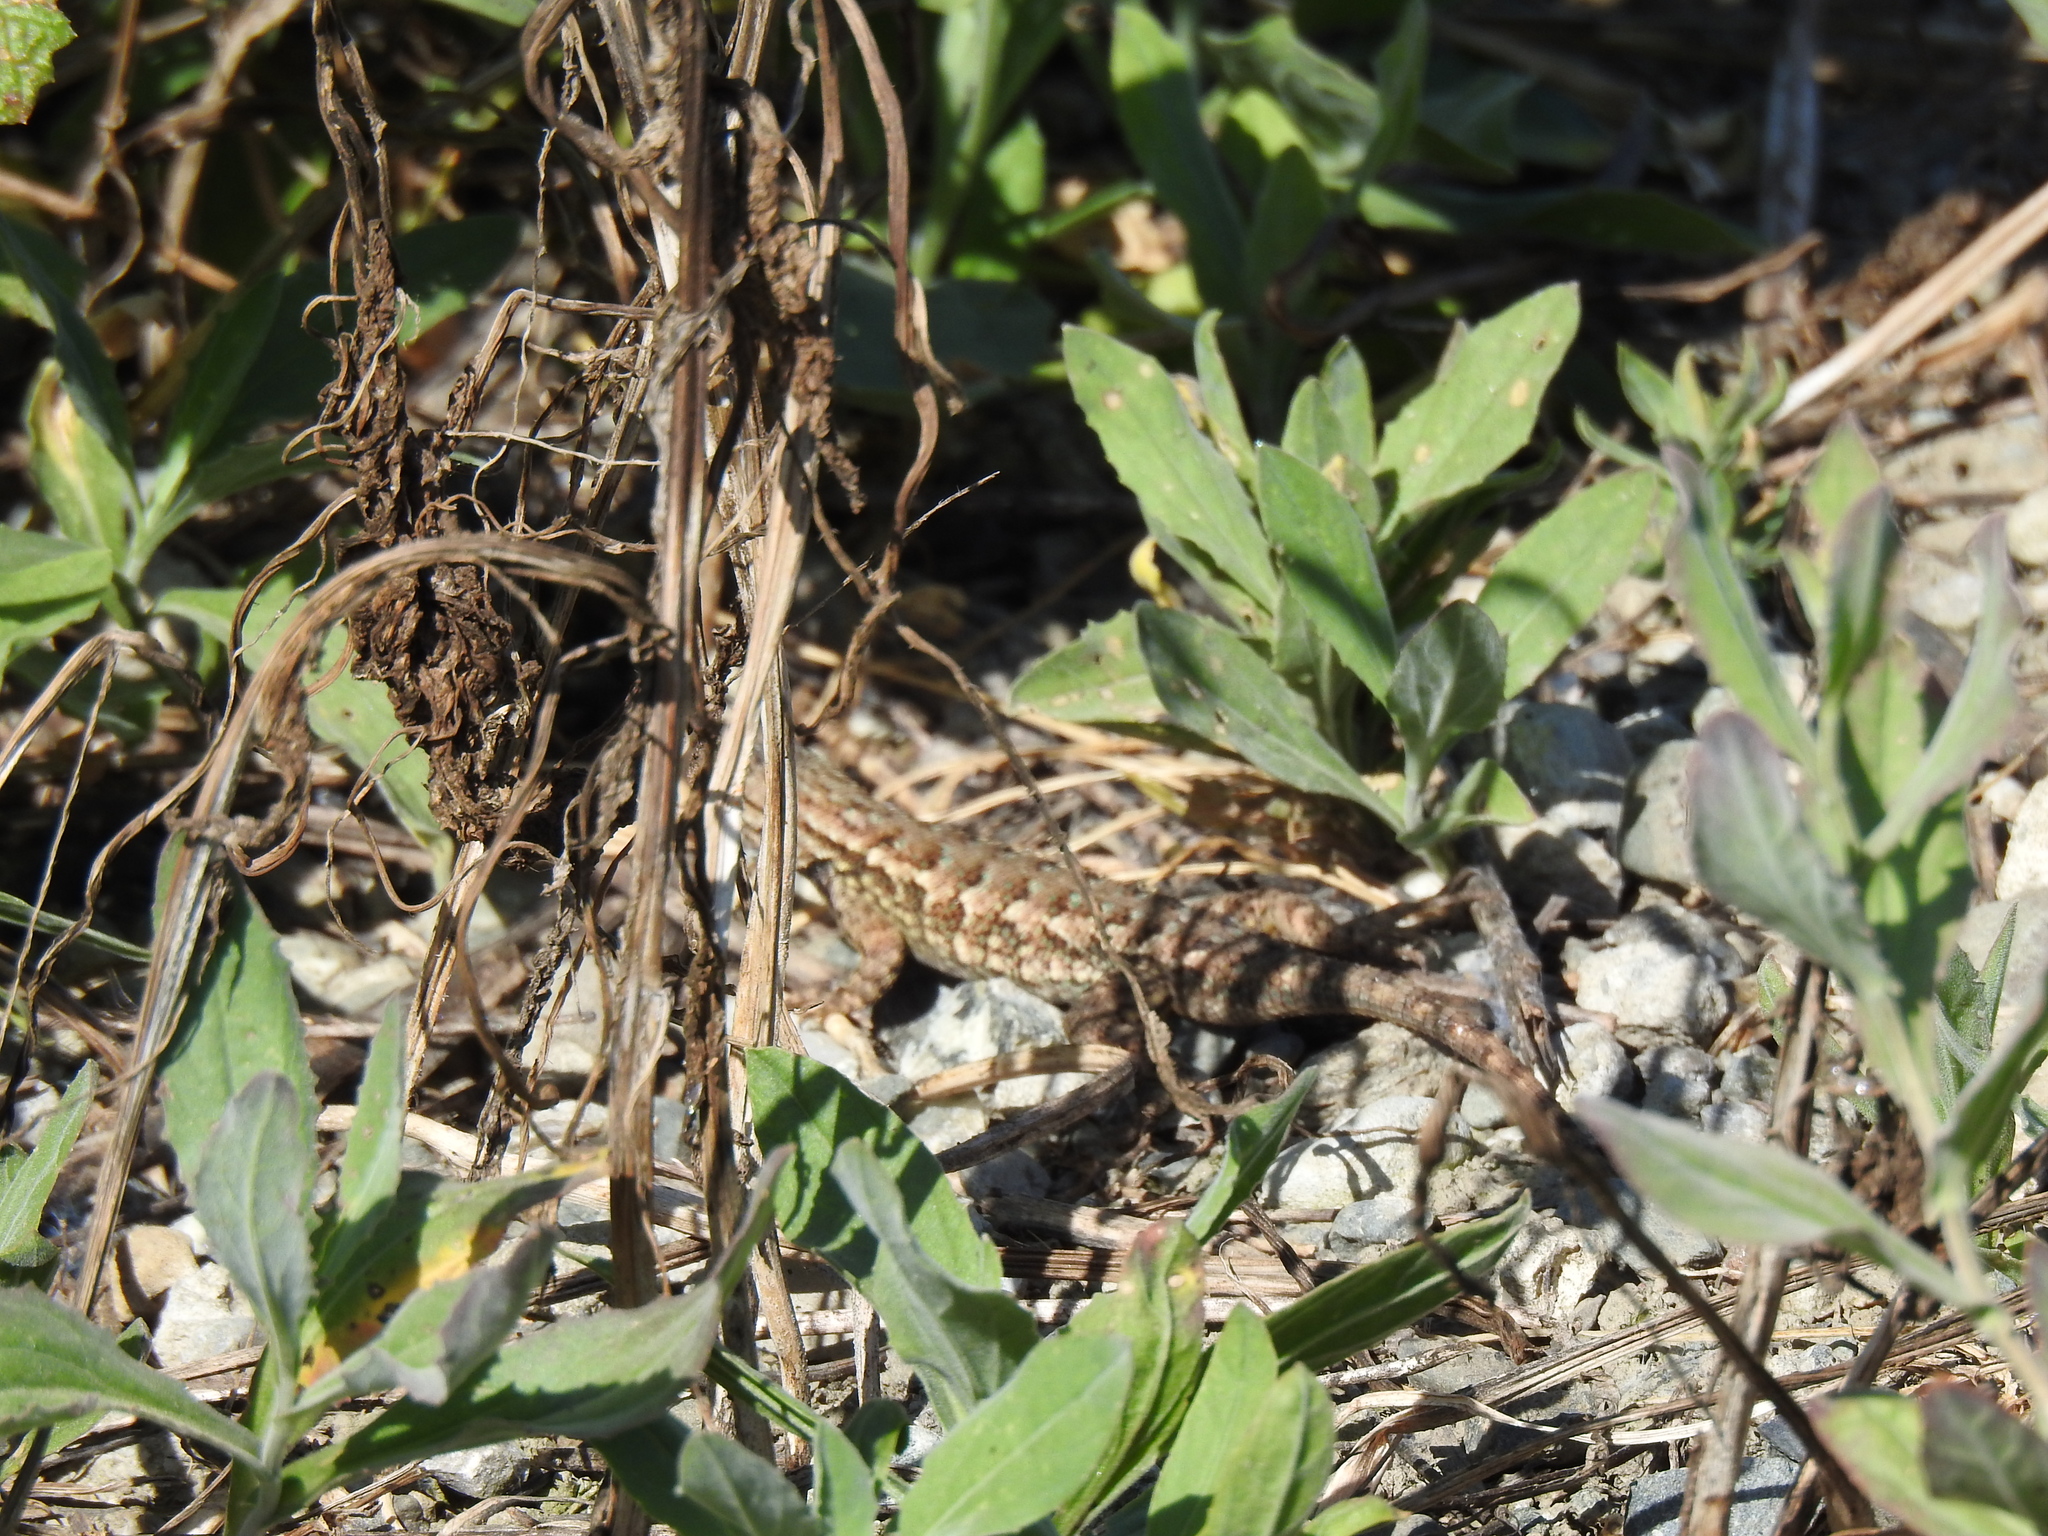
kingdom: Animalia
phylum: Chordata
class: Squamata
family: Phrynosomatidae
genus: Sceloporus
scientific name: Sceloporus occidentalis
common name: Western fence lizard
